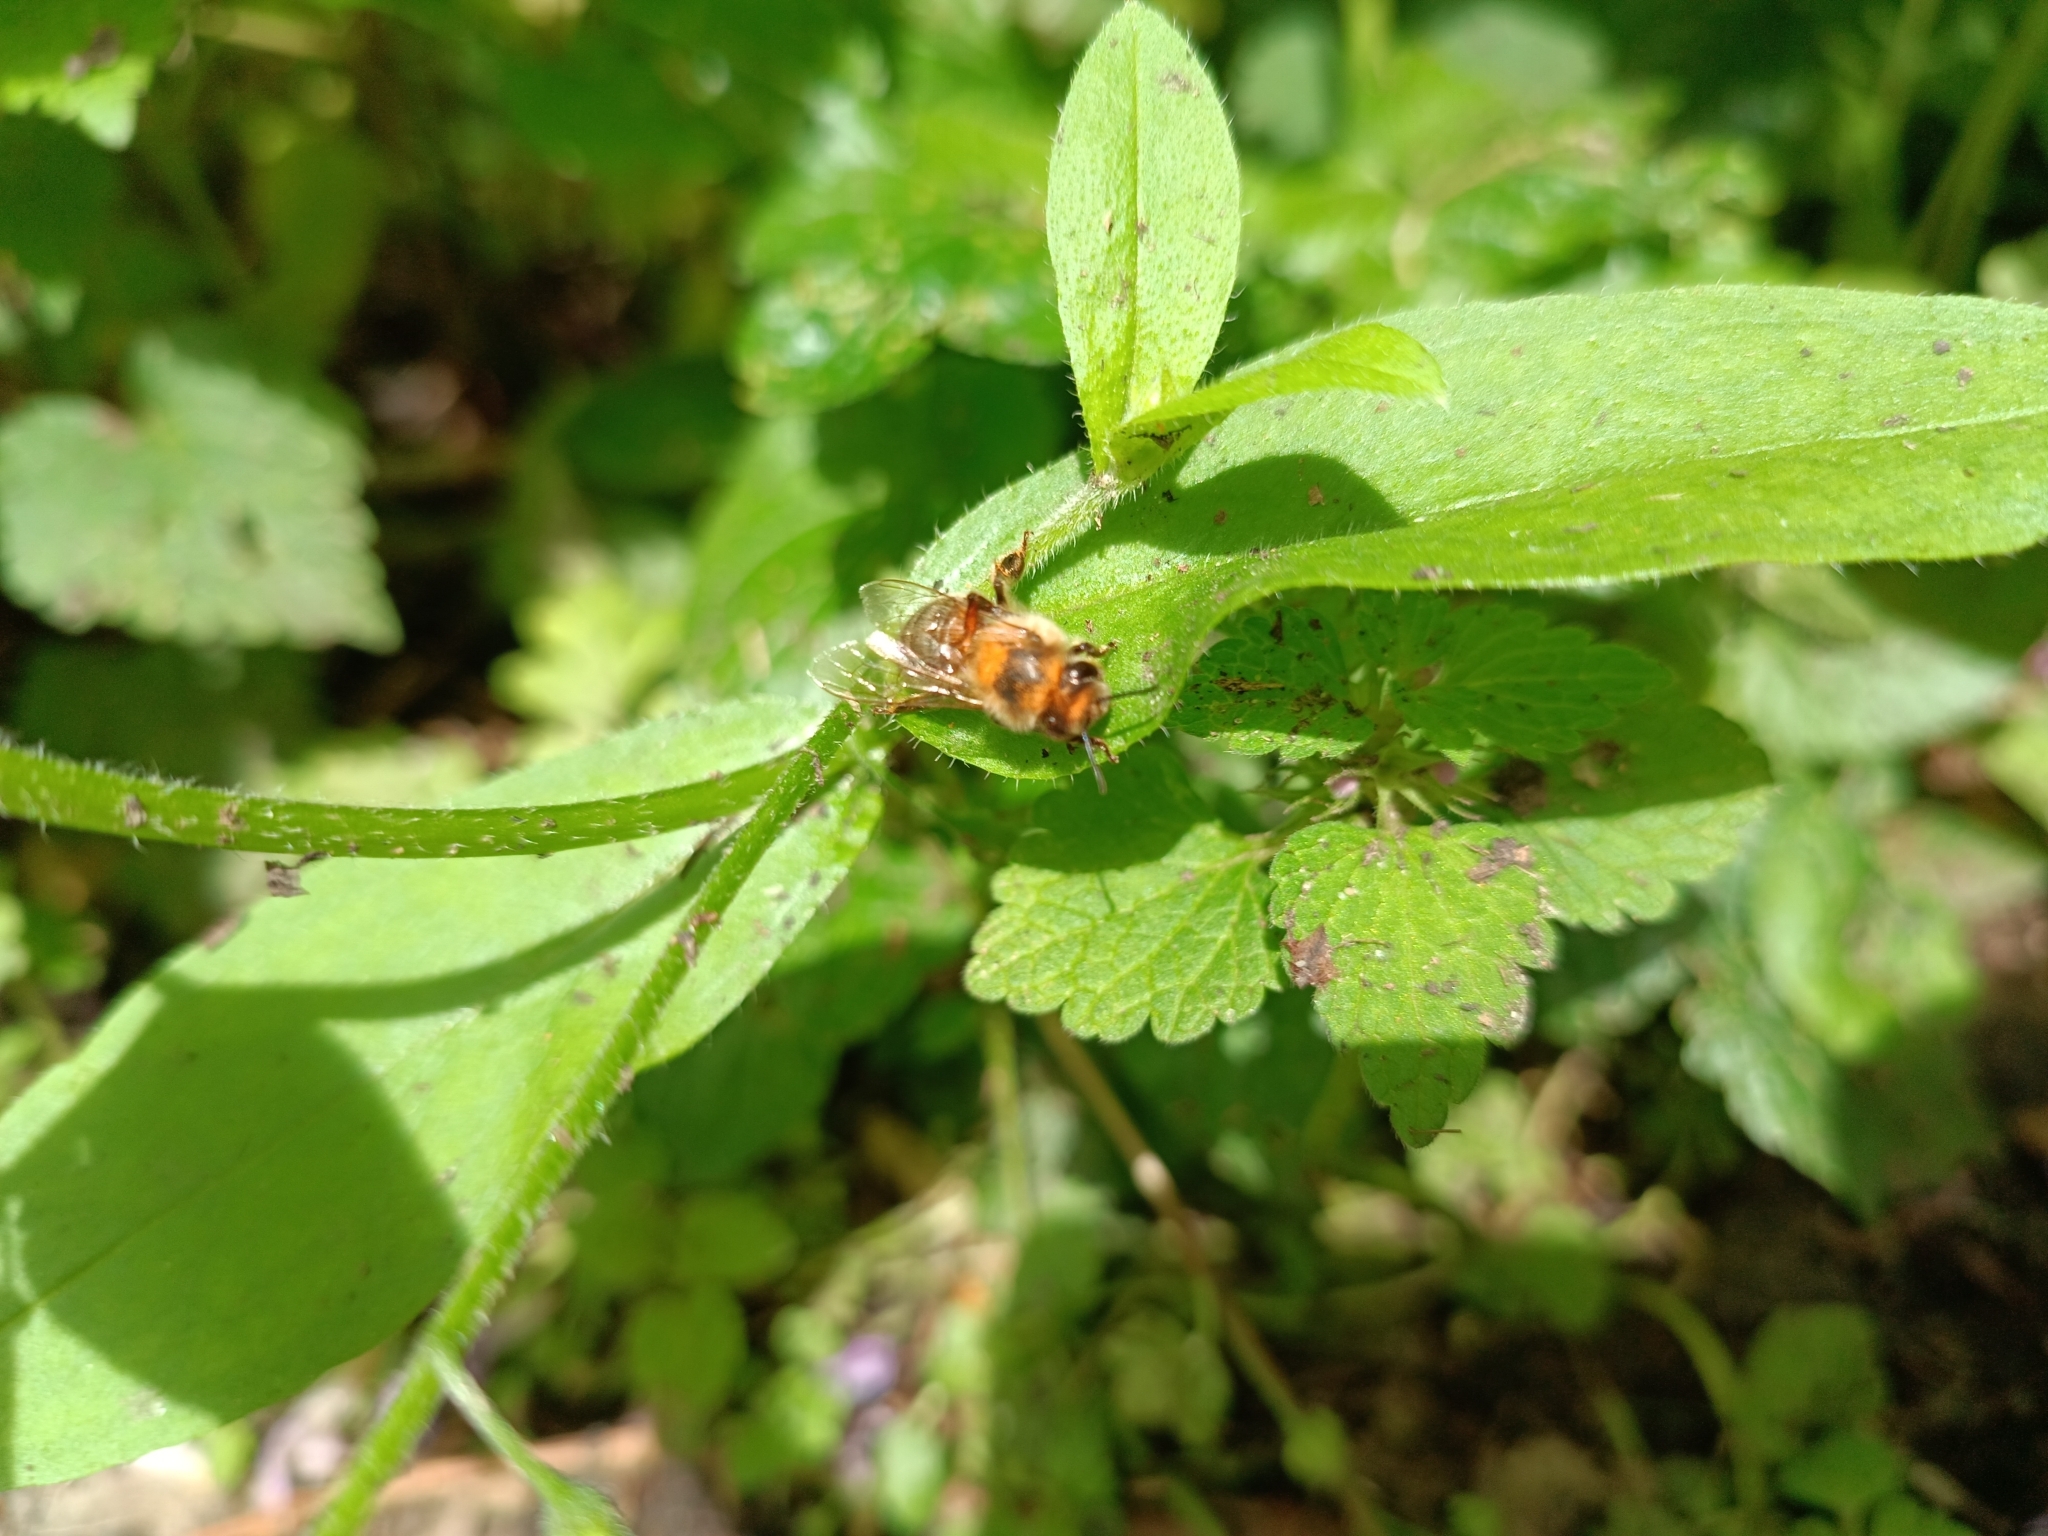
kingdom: Animalia
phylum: Arthropoda
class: Insecta
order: Hymenoptera
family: Apidae
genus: Apis
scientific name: Apis mellifera
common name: Honey bee
